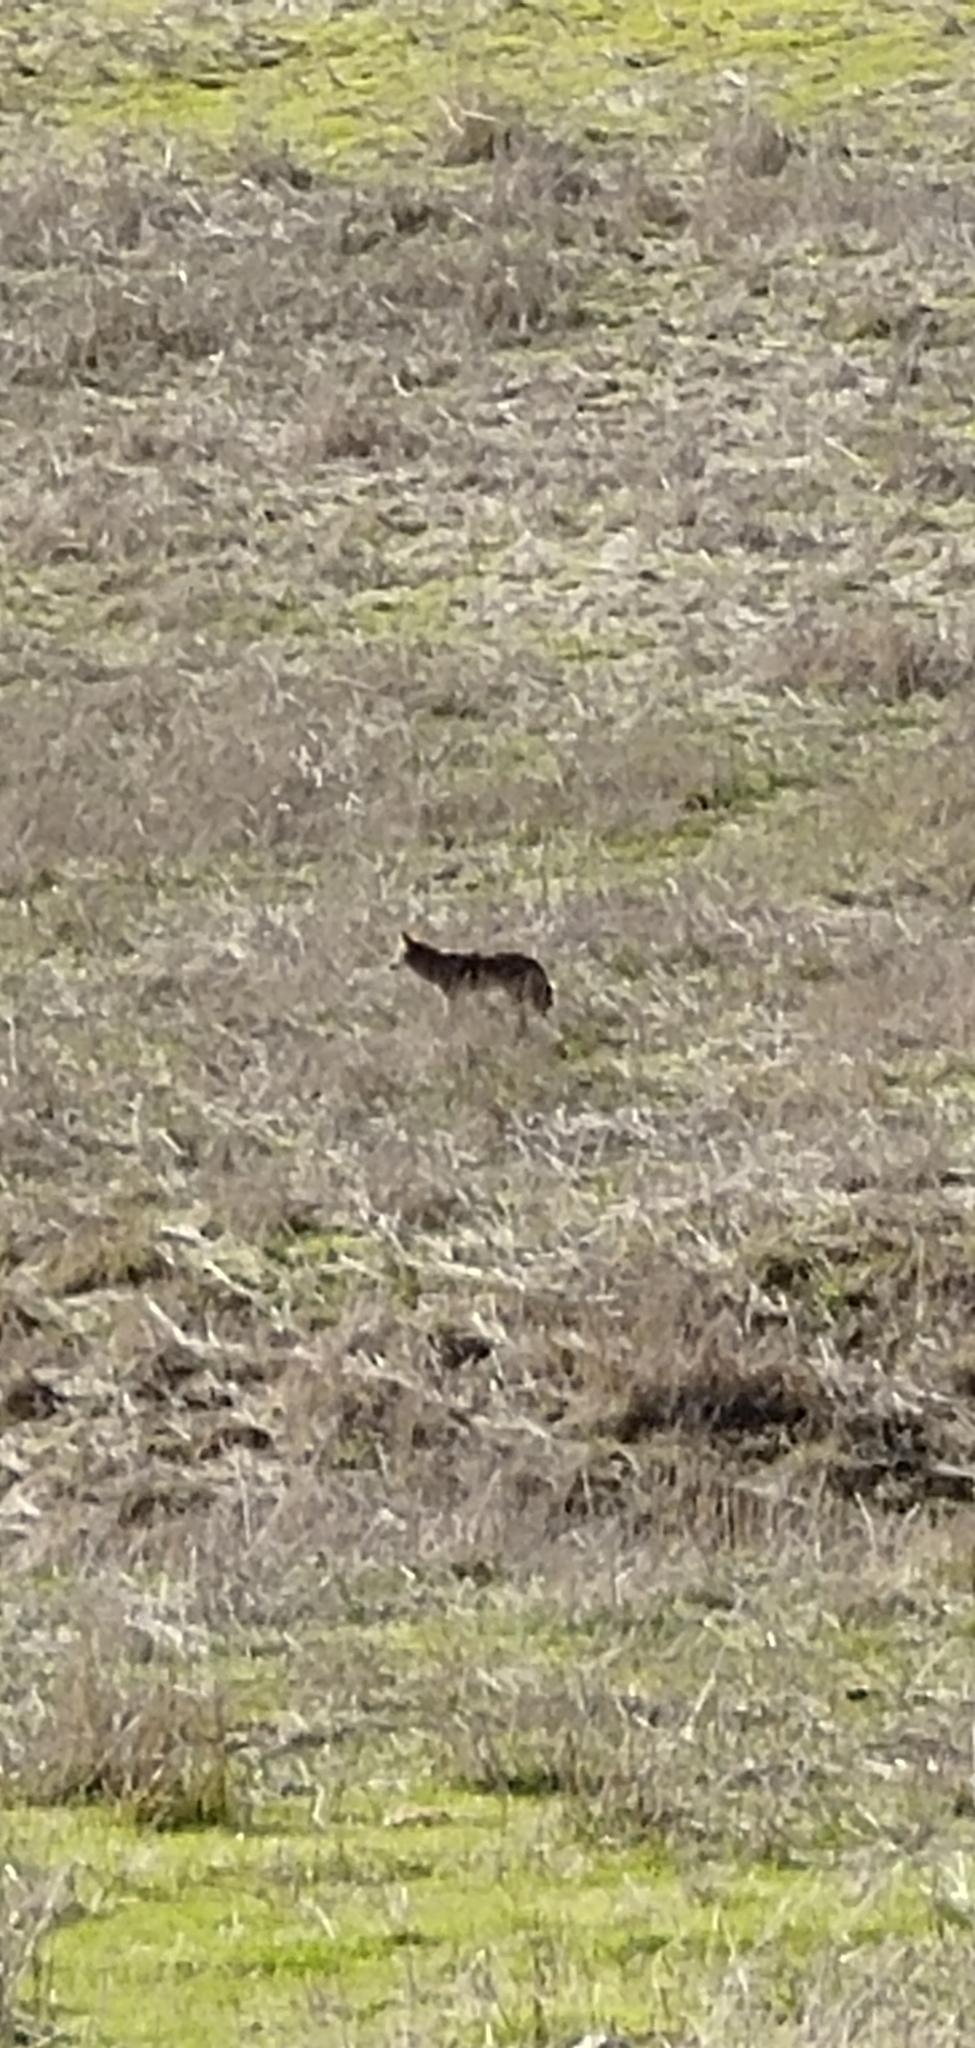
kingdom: Animalia
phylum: Chordata
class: Mammalia
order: Carnivora
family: Canidae
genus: Canis
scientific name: Canis latrans
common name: Coyote
